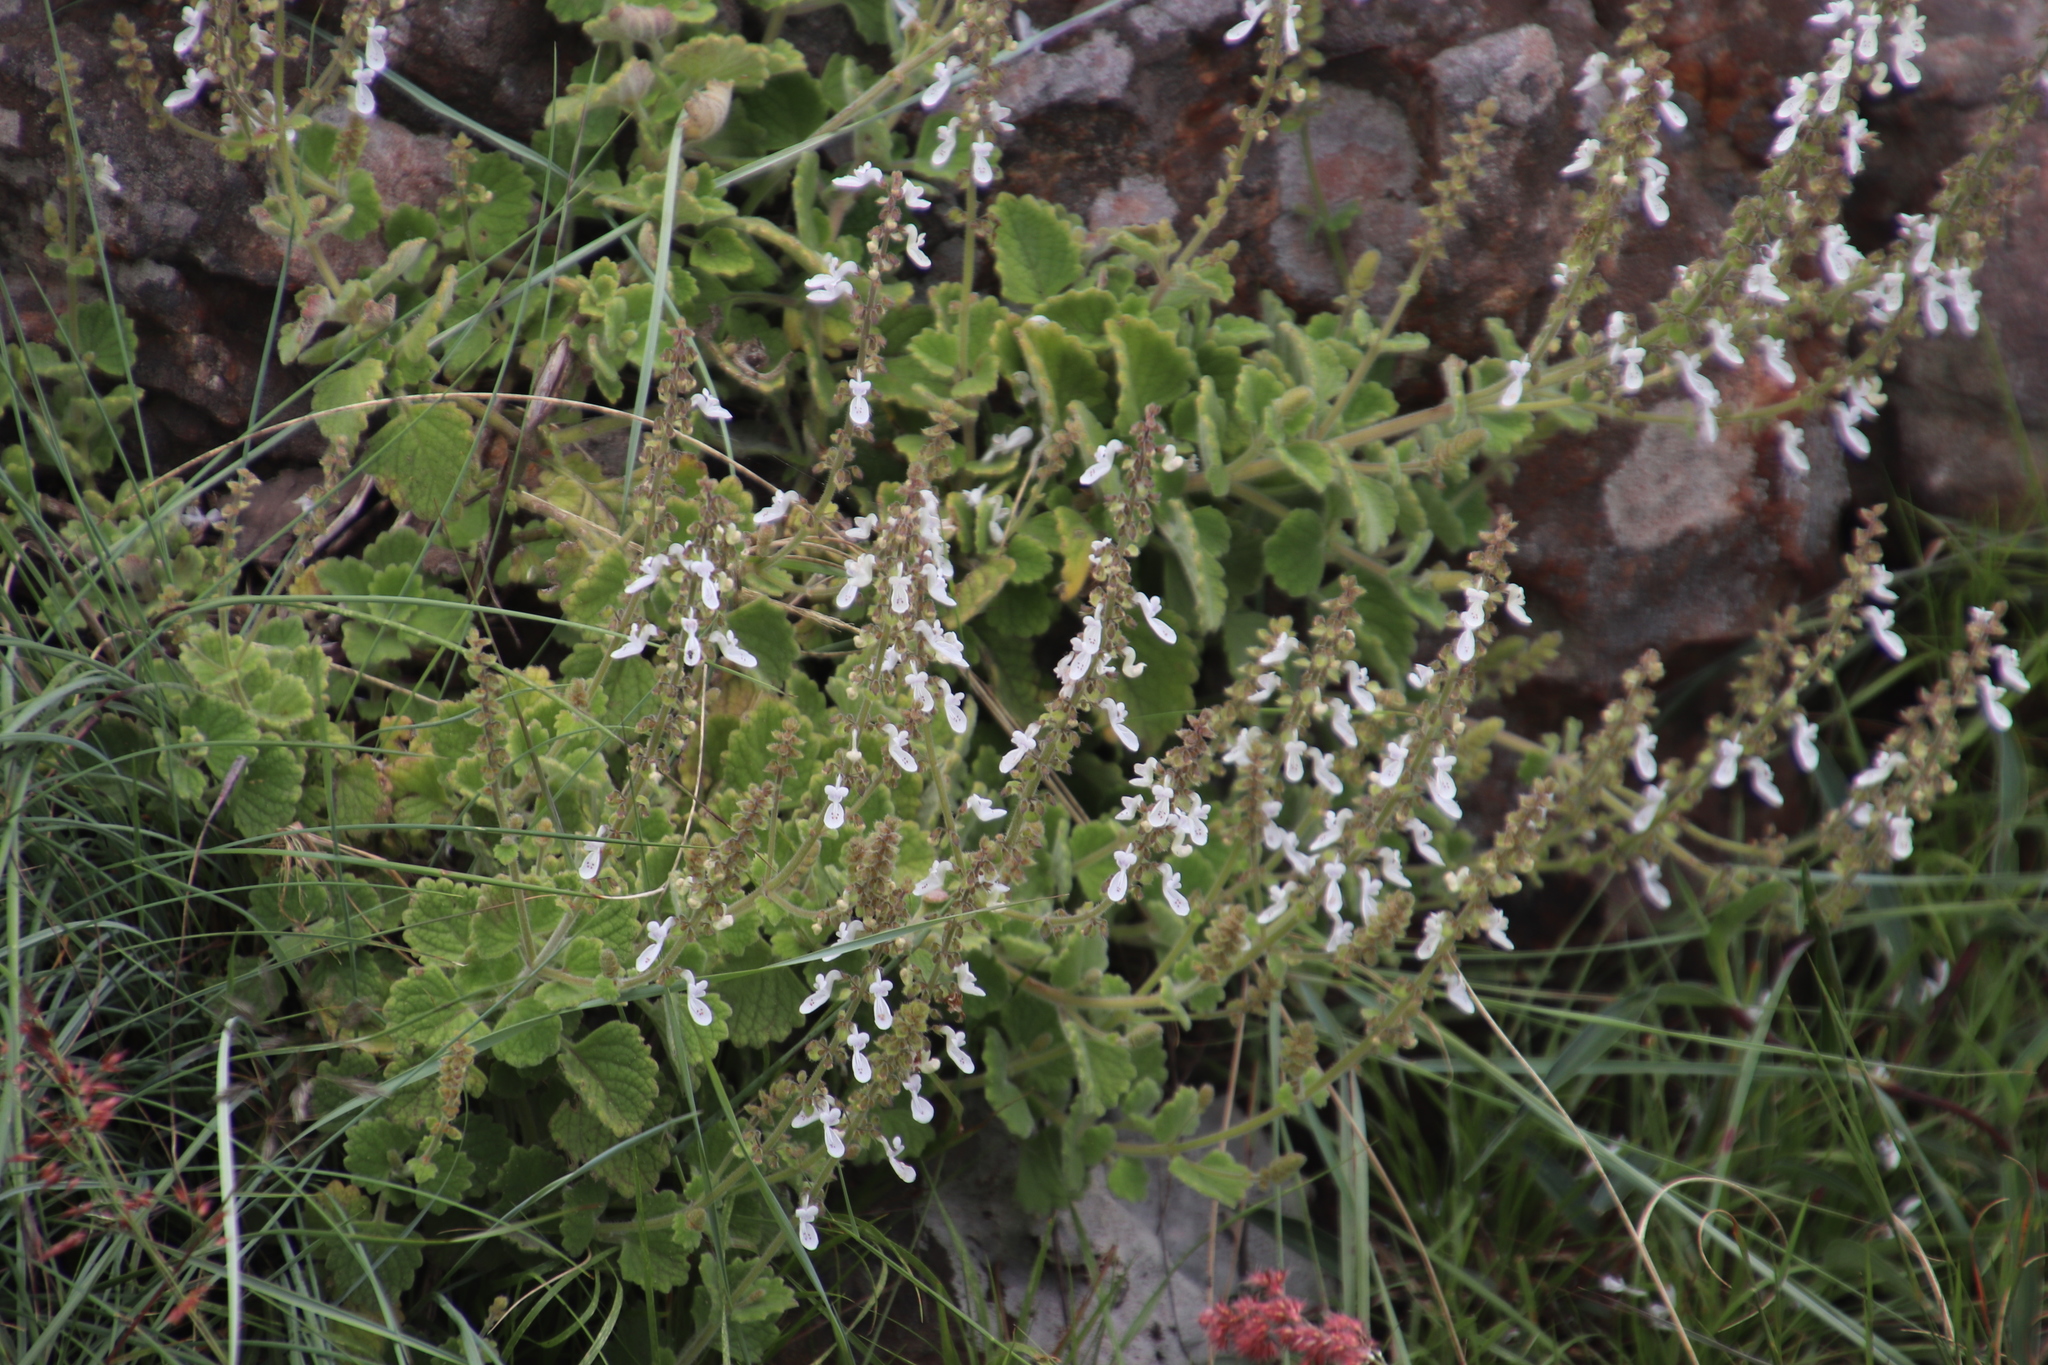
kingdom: Plantae
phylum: Tracheophyta
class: Magnoliopsida
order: Lamiales
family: Lamiaceae
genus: Coleus
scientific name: Coleus hadiensis
